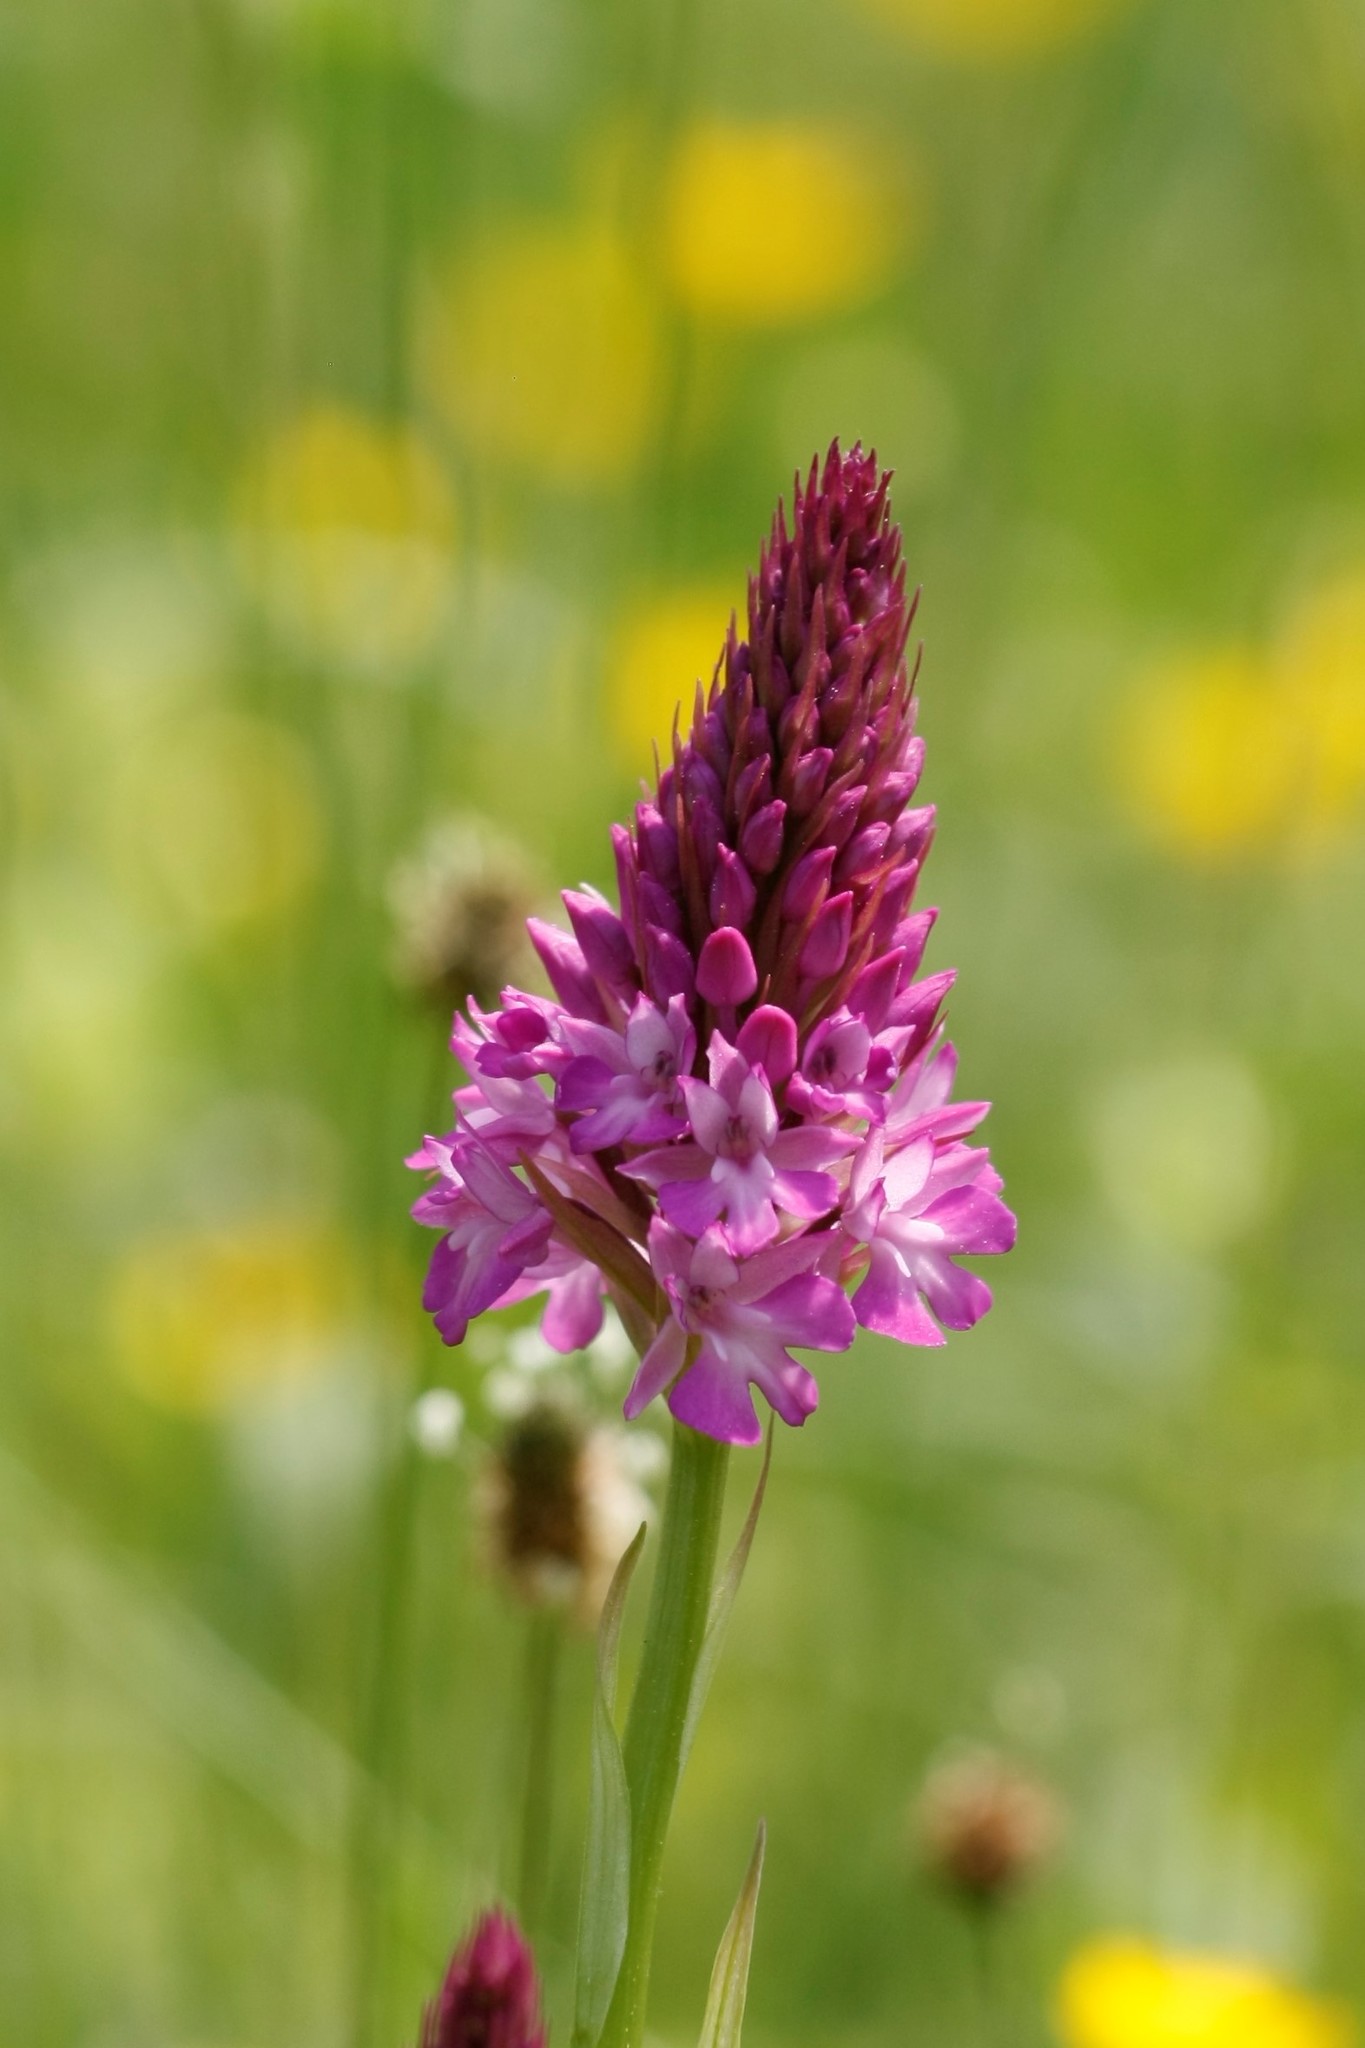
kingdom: Plantae
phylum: Tracheophyta
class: Liliopsida
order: Asparagales
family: Orchidaceae
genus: Anacamptis
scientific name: Anacamptis pyramidalis
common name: Pyramidal orchid
